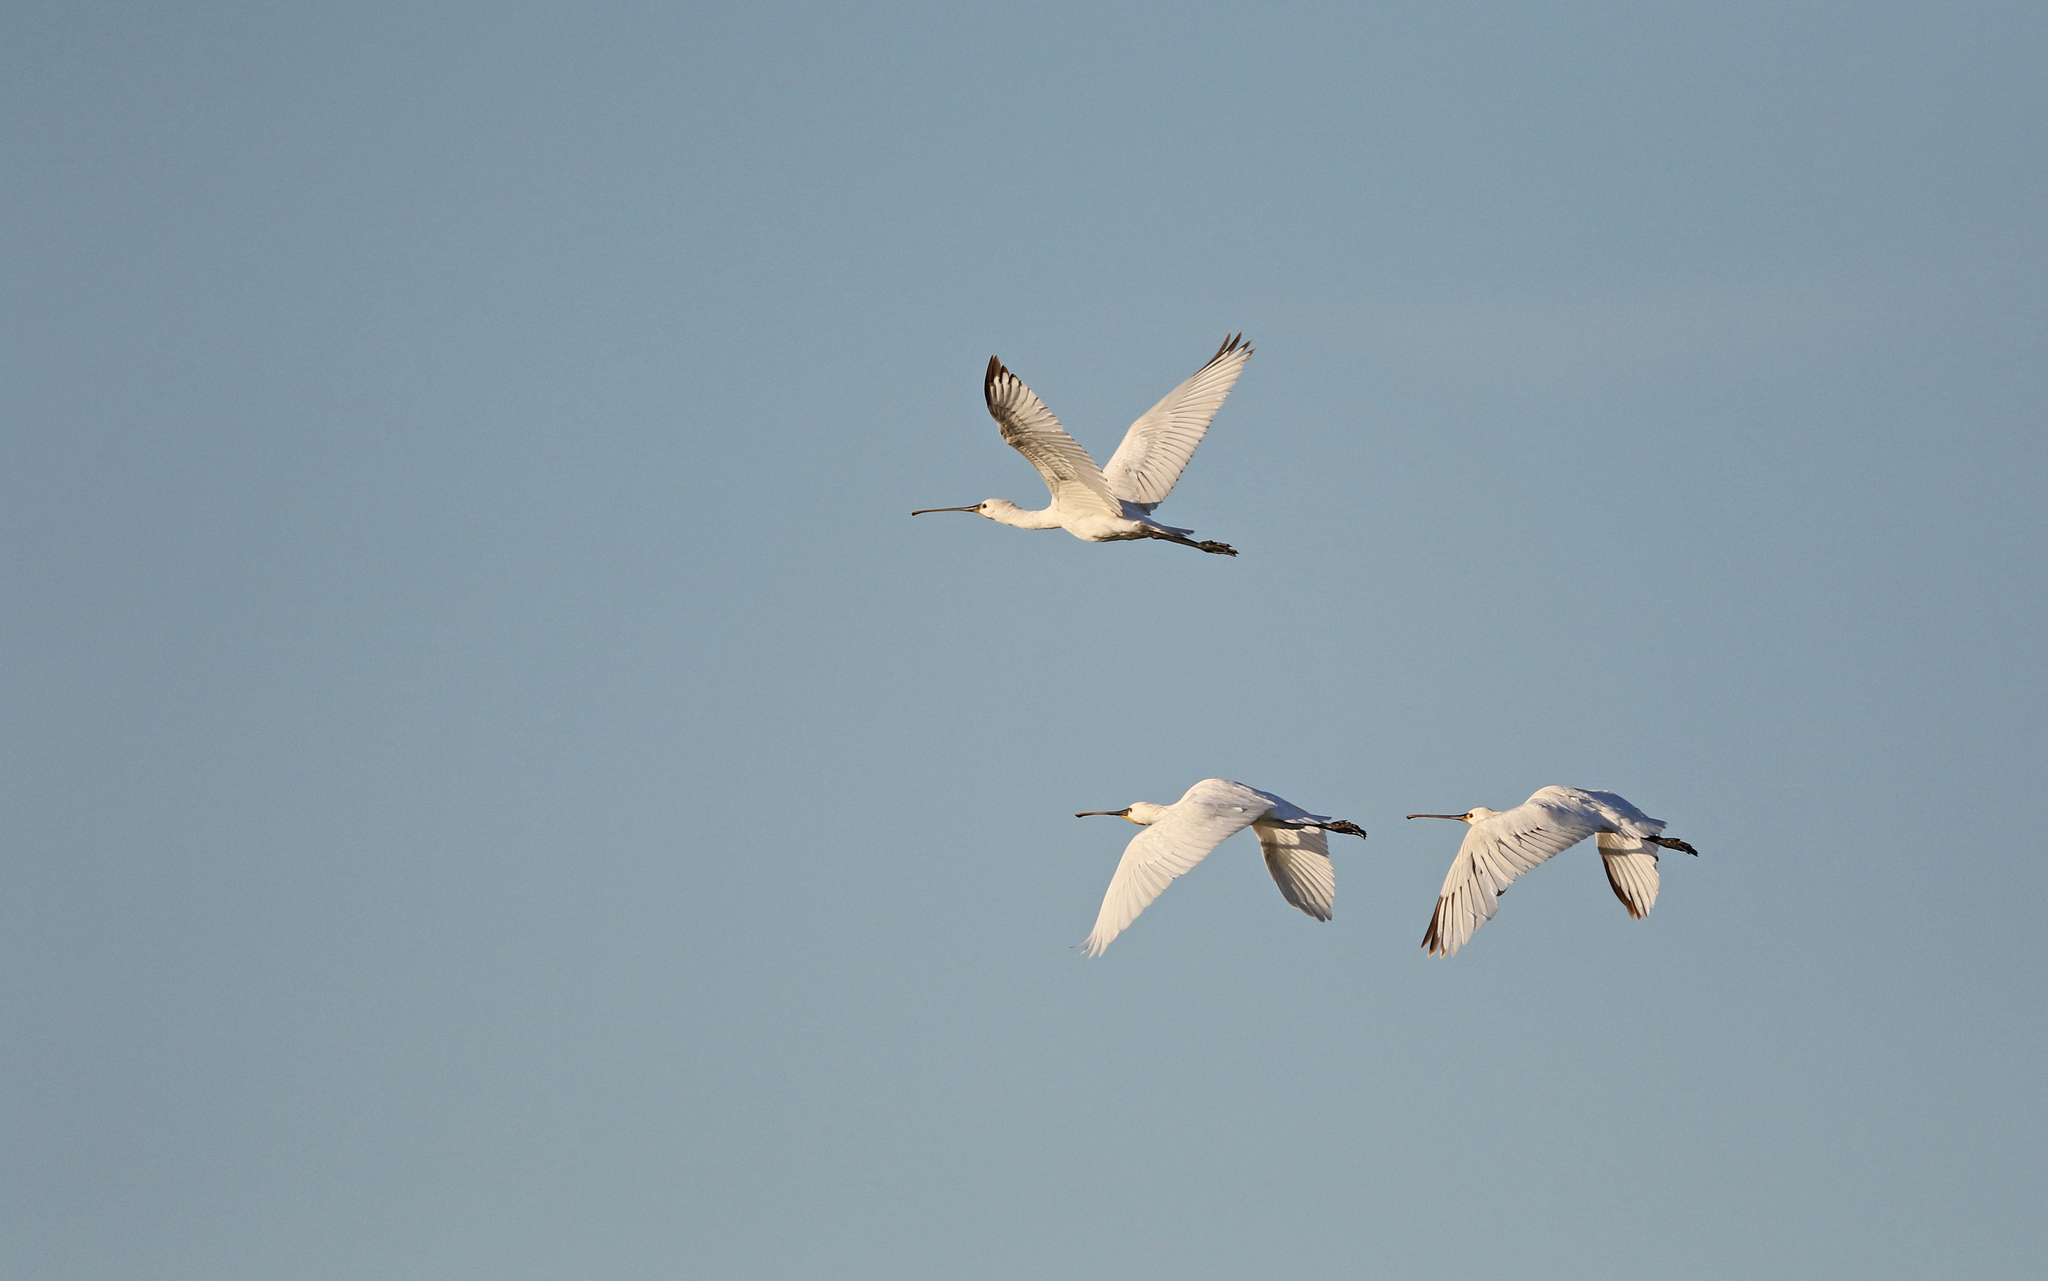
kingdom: Animalia
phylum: Chordata
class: Aves
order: Pelecaniformes
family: Threskiornithidae
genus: Platalea
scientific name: Platalea leucorodia
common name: Eurasian spoonbill
